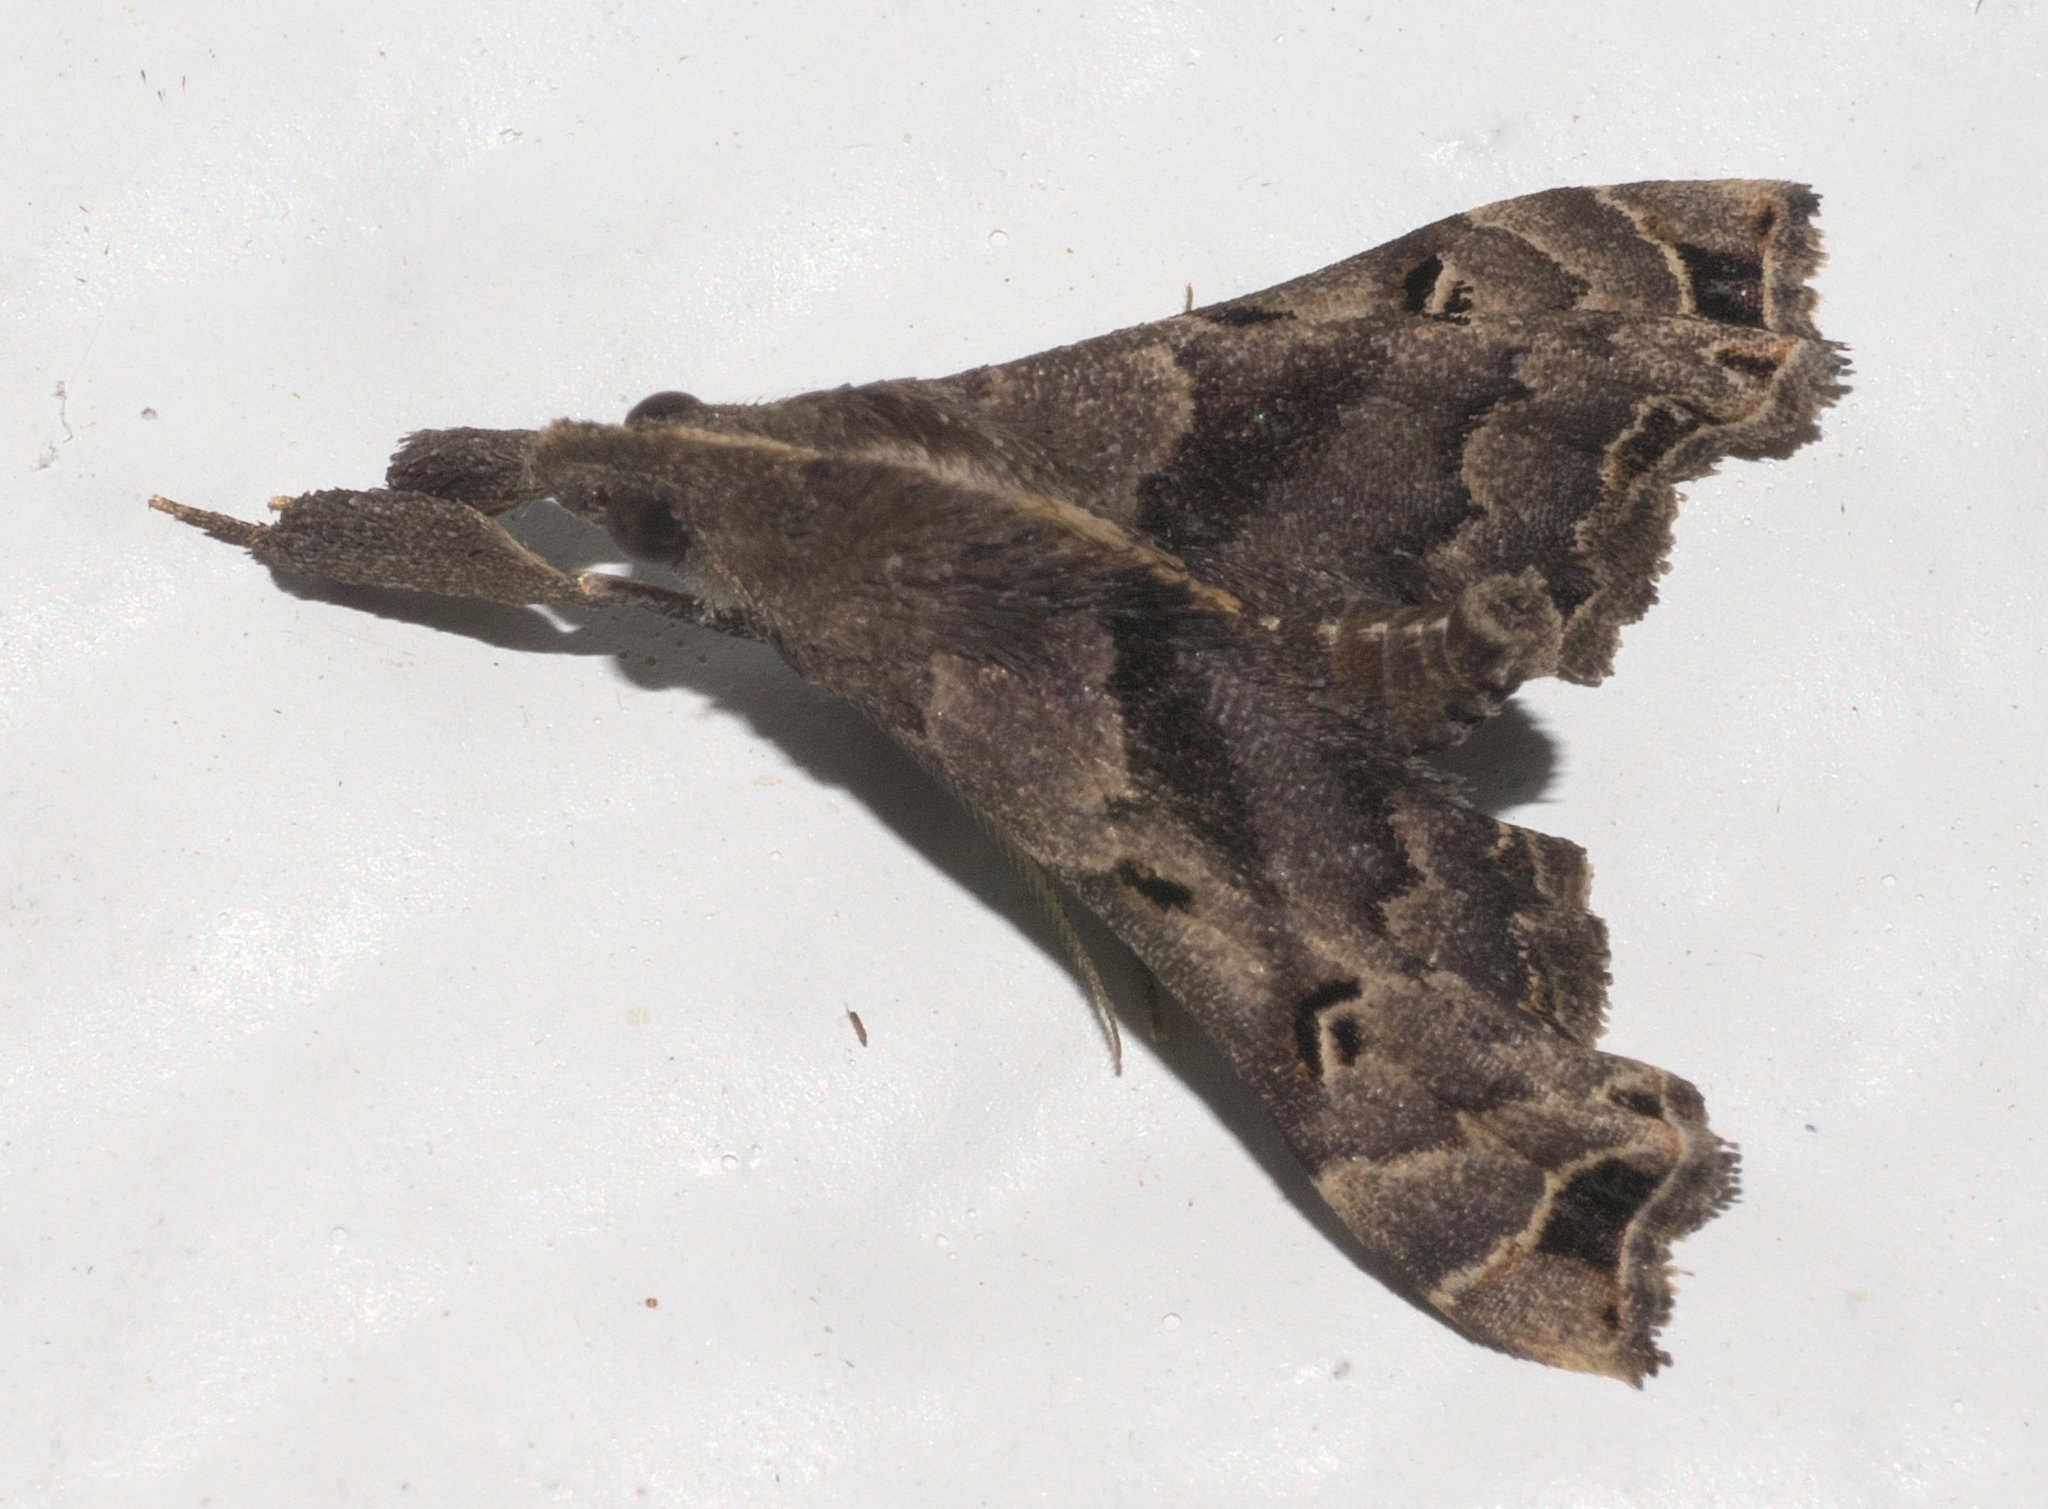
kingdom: Animalia
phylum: Arthropoda
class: Insecta
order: Lepidoptera
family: Erebidae
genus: Palthis
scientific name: Palthis asopialis
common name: Faint-spotted palthis moth
